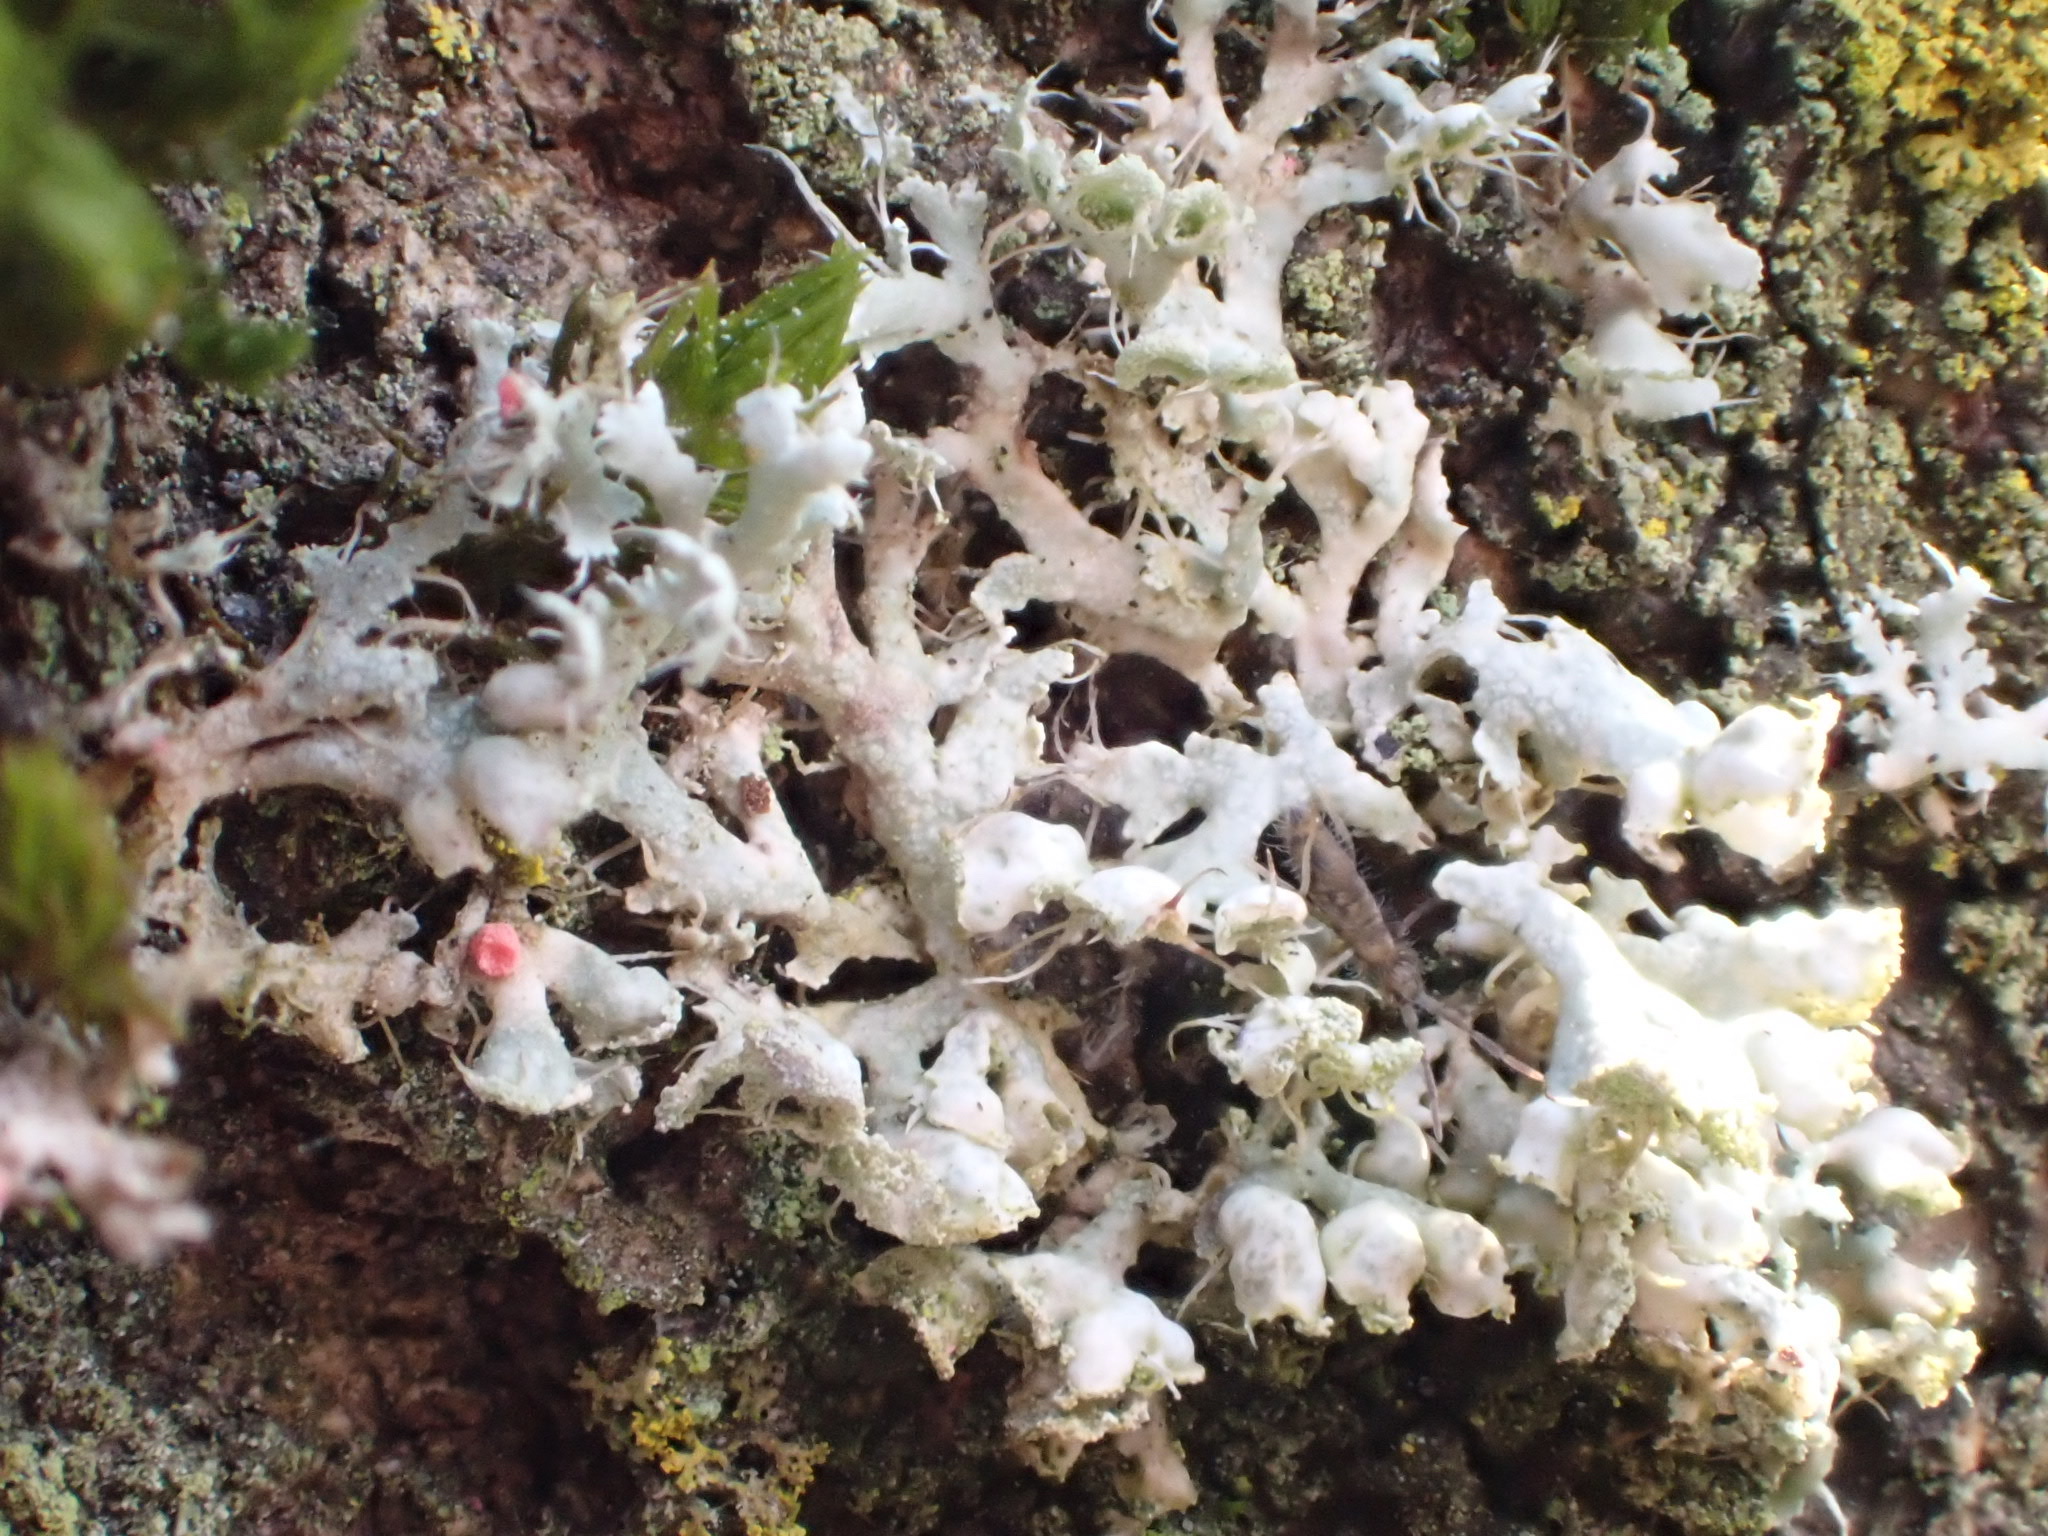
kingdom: Fungi
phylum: Ascomycota
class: Lecanoromycetes
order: Caliciales
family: Physciaceae
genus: Physcia
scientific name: Physcia adscendens
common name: Hooded rosette lichen
